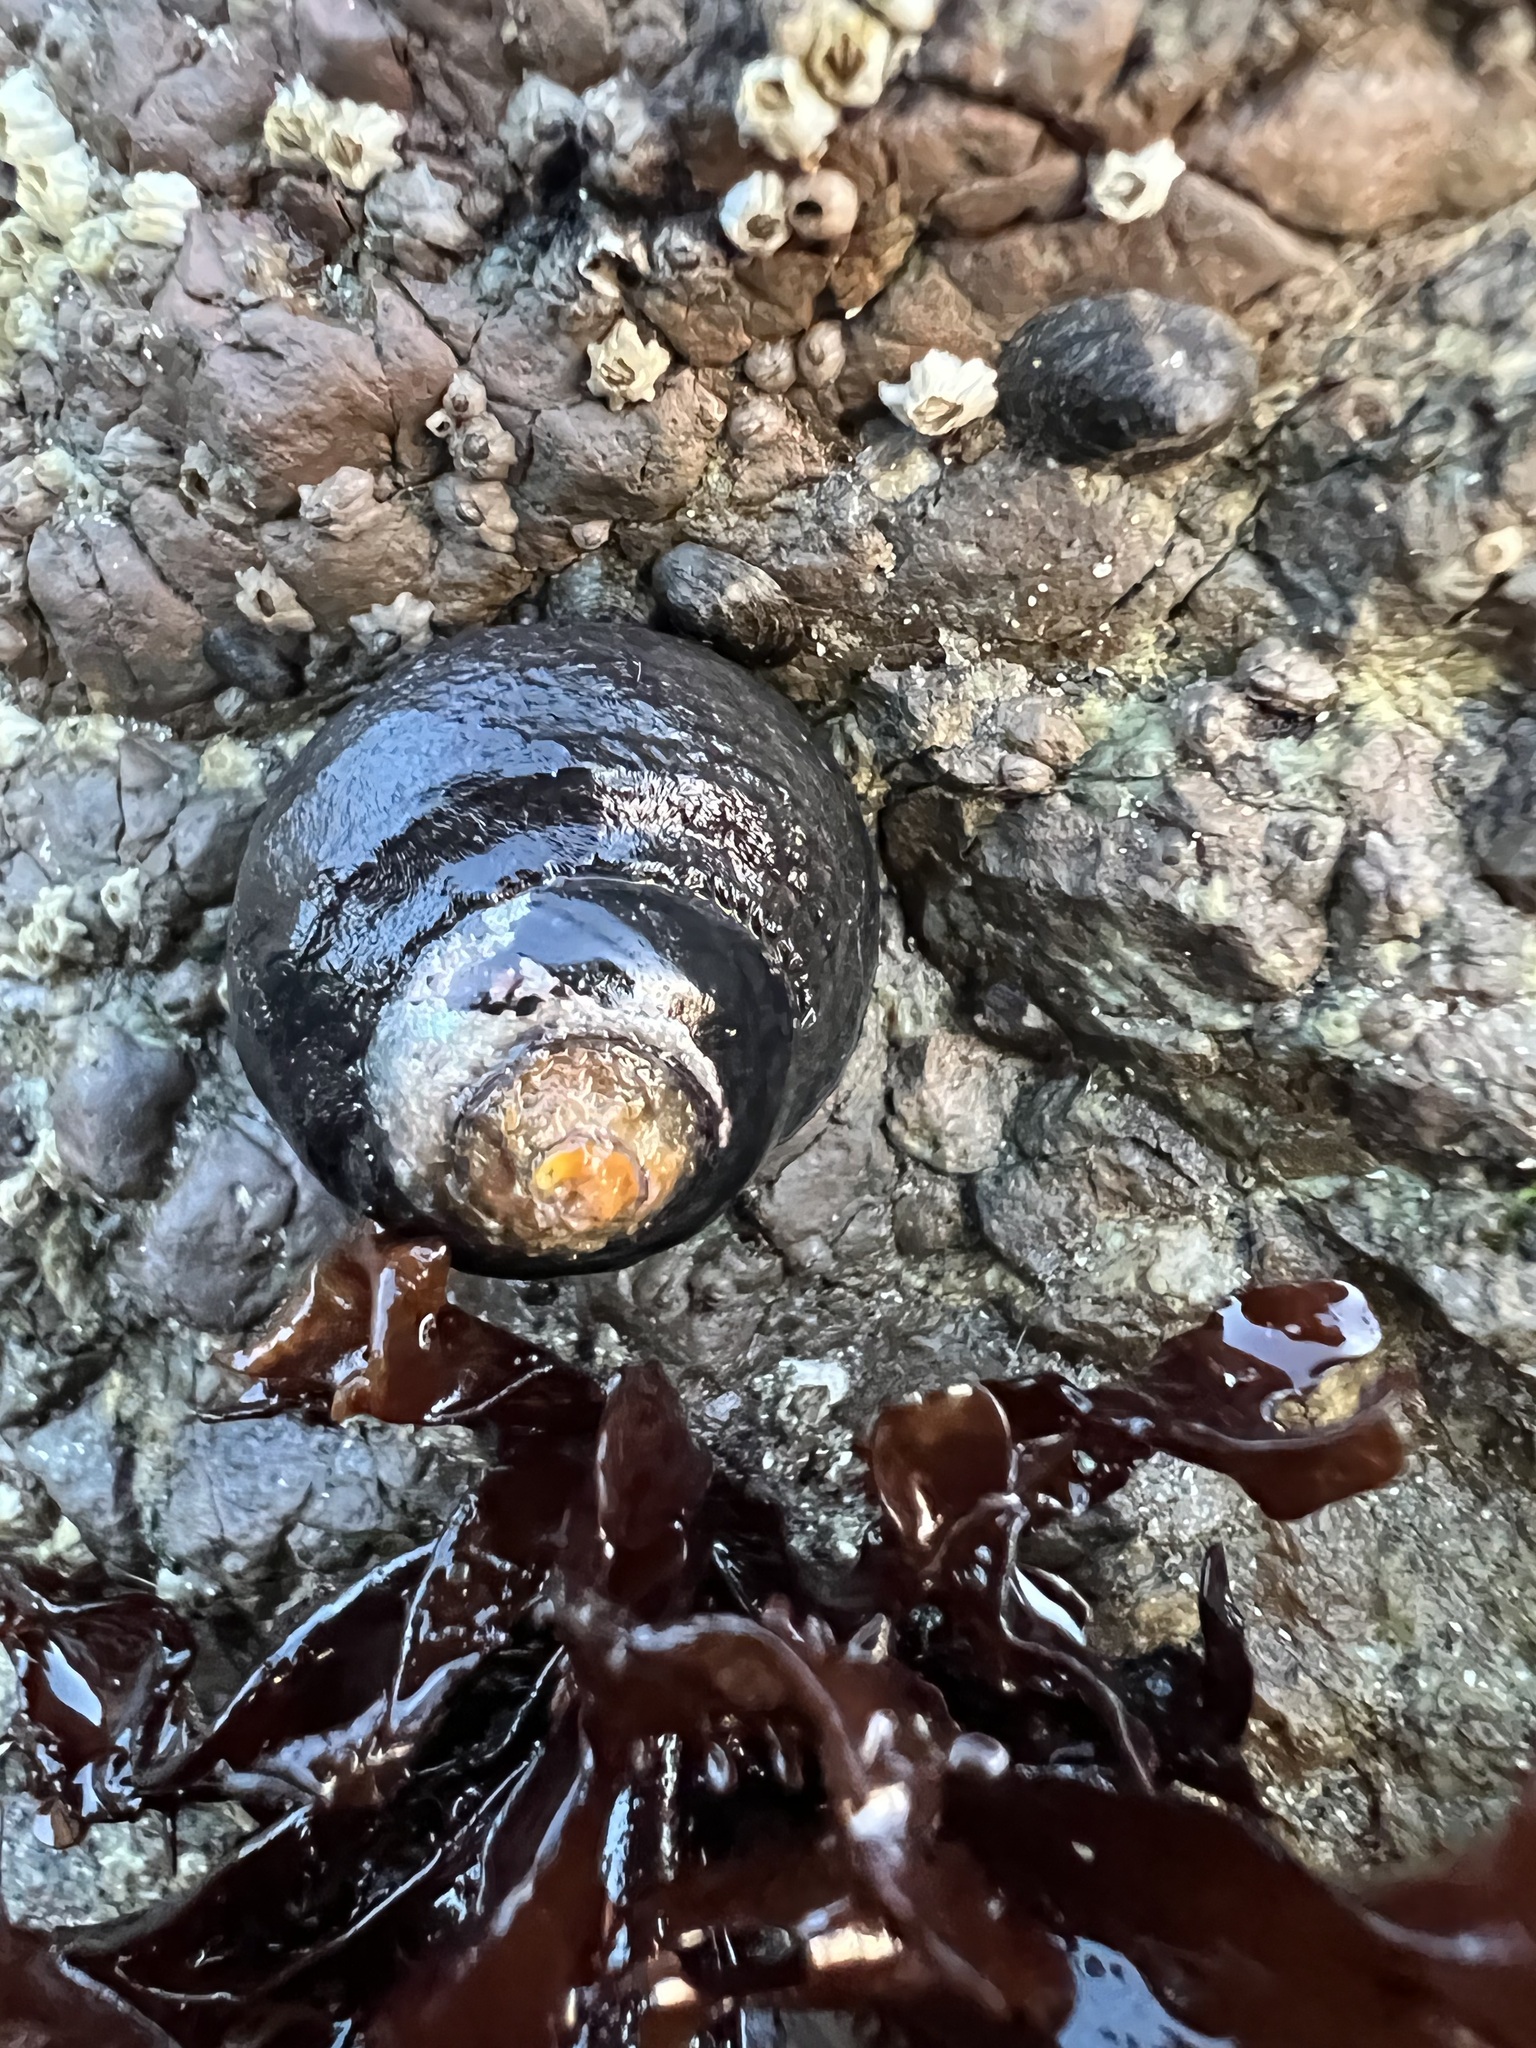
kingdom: Animalia
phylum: Mollusca
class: Gastropoda
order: Trochida
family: Tegulidae
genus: Tegula
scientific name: Tegula funebralis
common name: Black tegula
